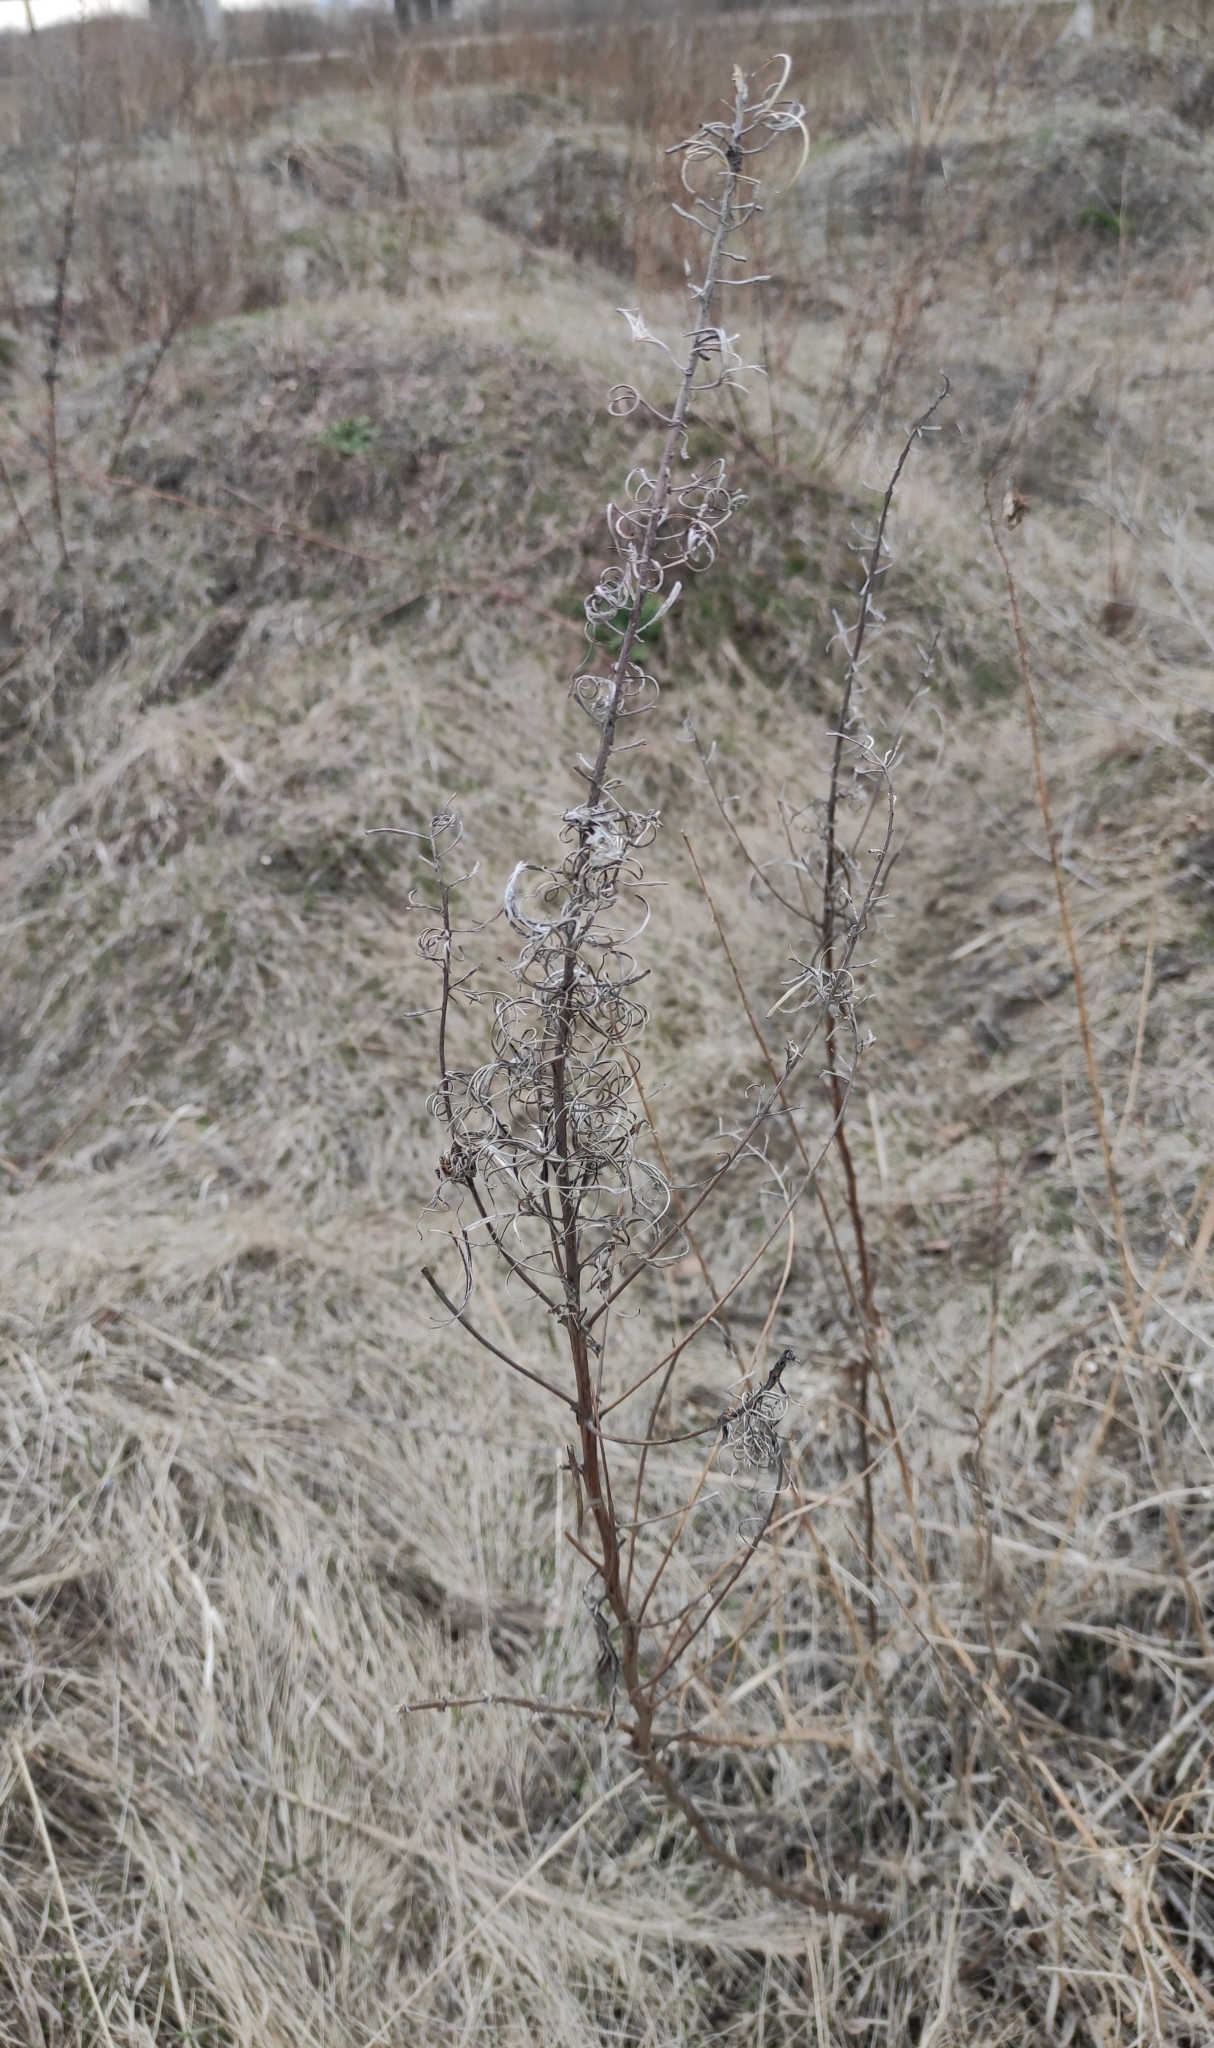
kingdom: Plantae
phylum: Tracheophyta
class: Magnoliopsida
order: Myrtales
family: Onagraceae
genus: Chamaenerion
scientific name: Chamaenerion angustifolium
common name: Fireweed
